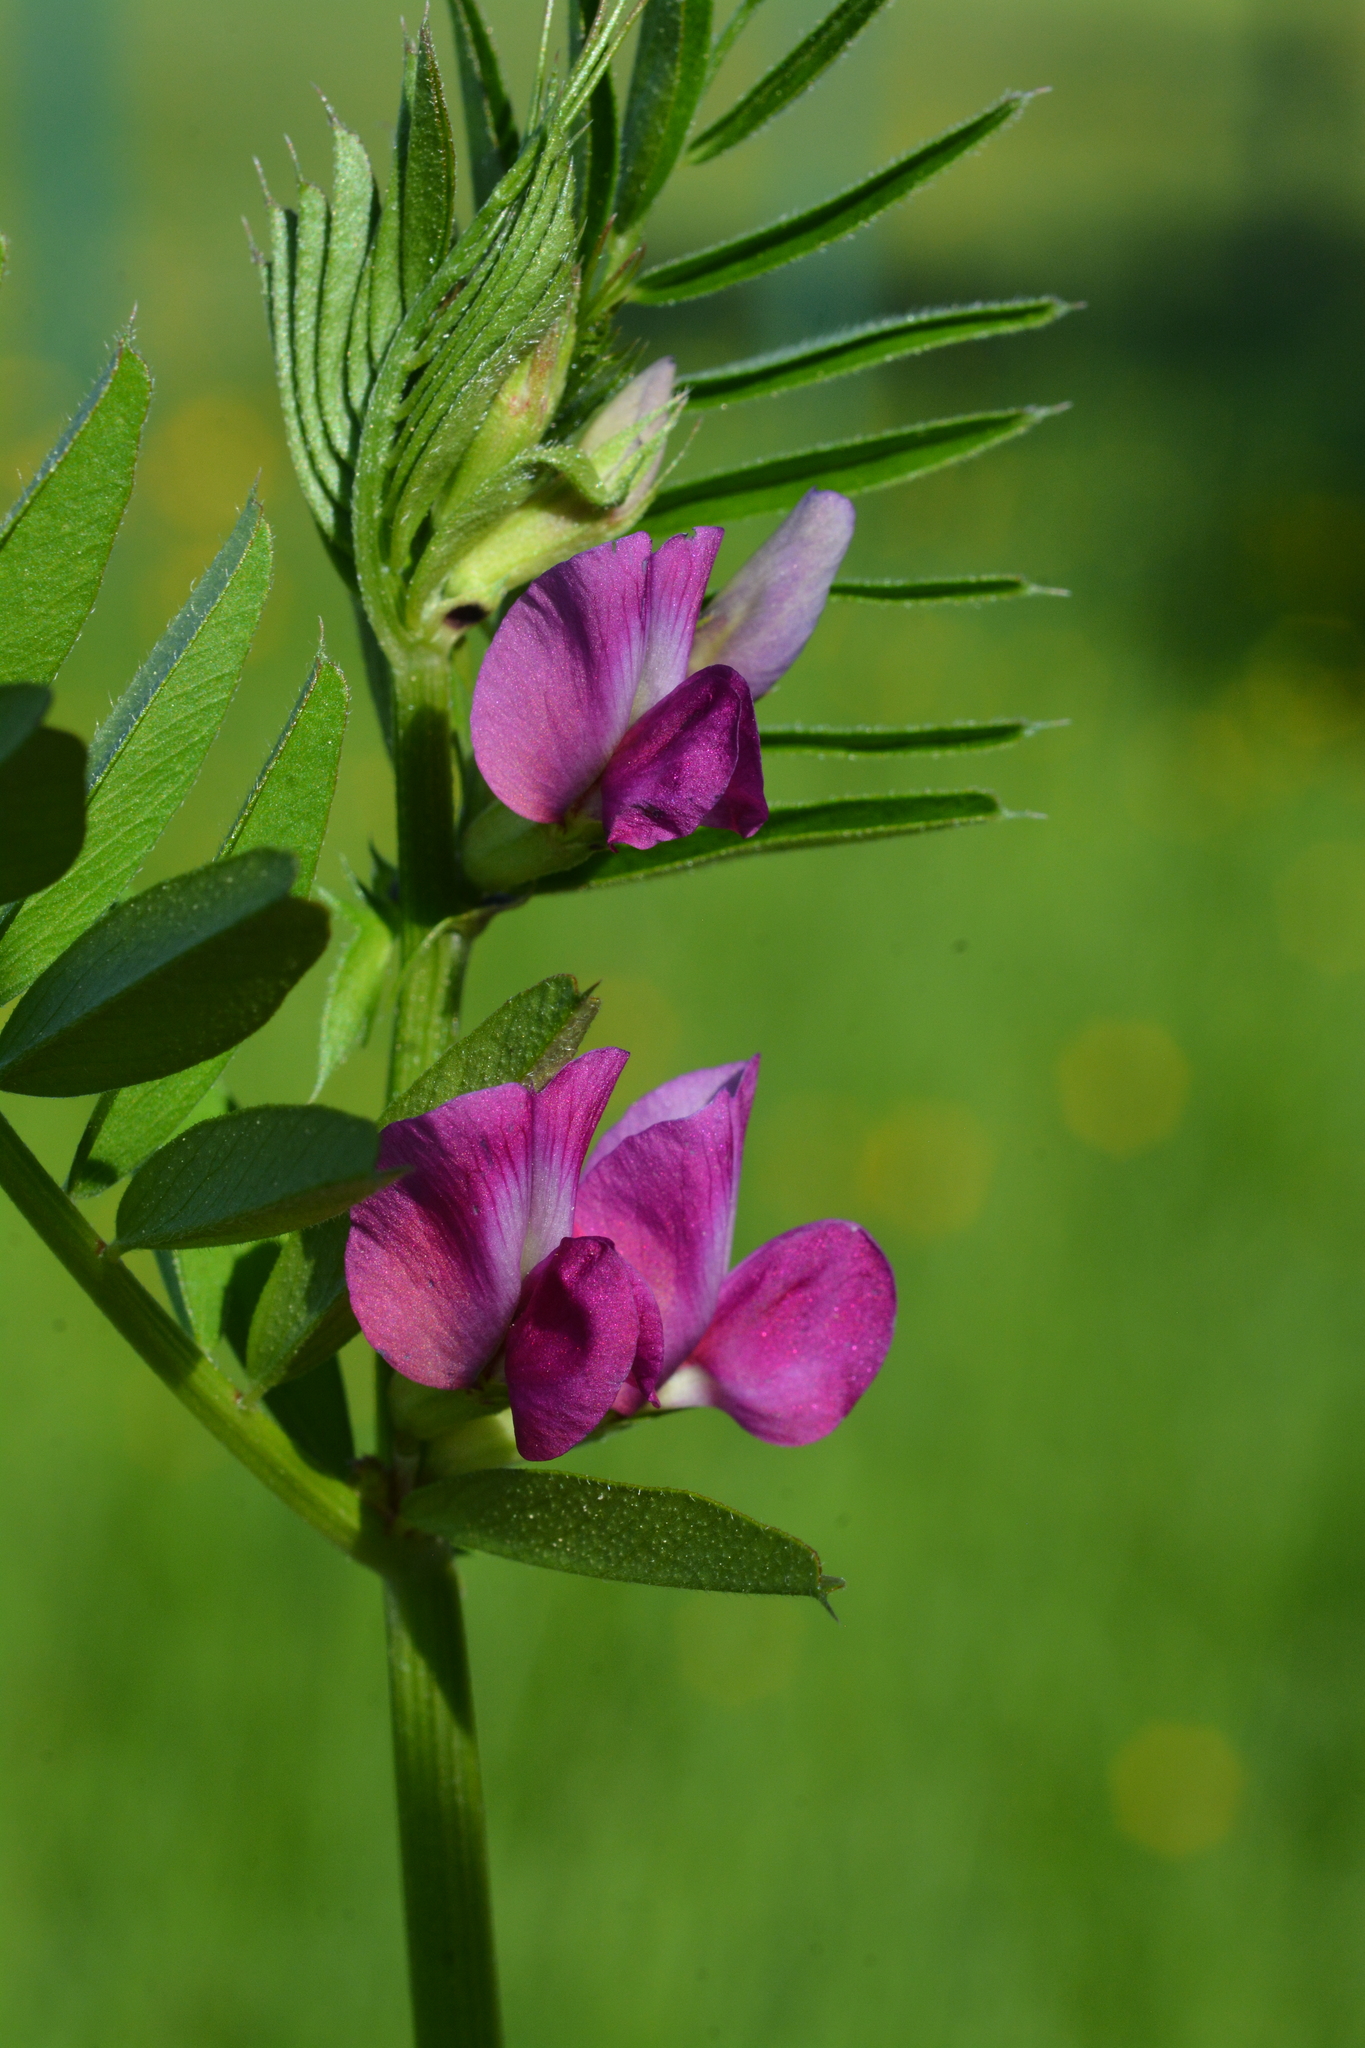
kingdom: Plantae
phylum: Tracheophyta
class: Magnoliopsida
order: Fabales
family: Fabaceae
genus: Vicia
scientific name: Vicia sativa
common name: Garden vetch
